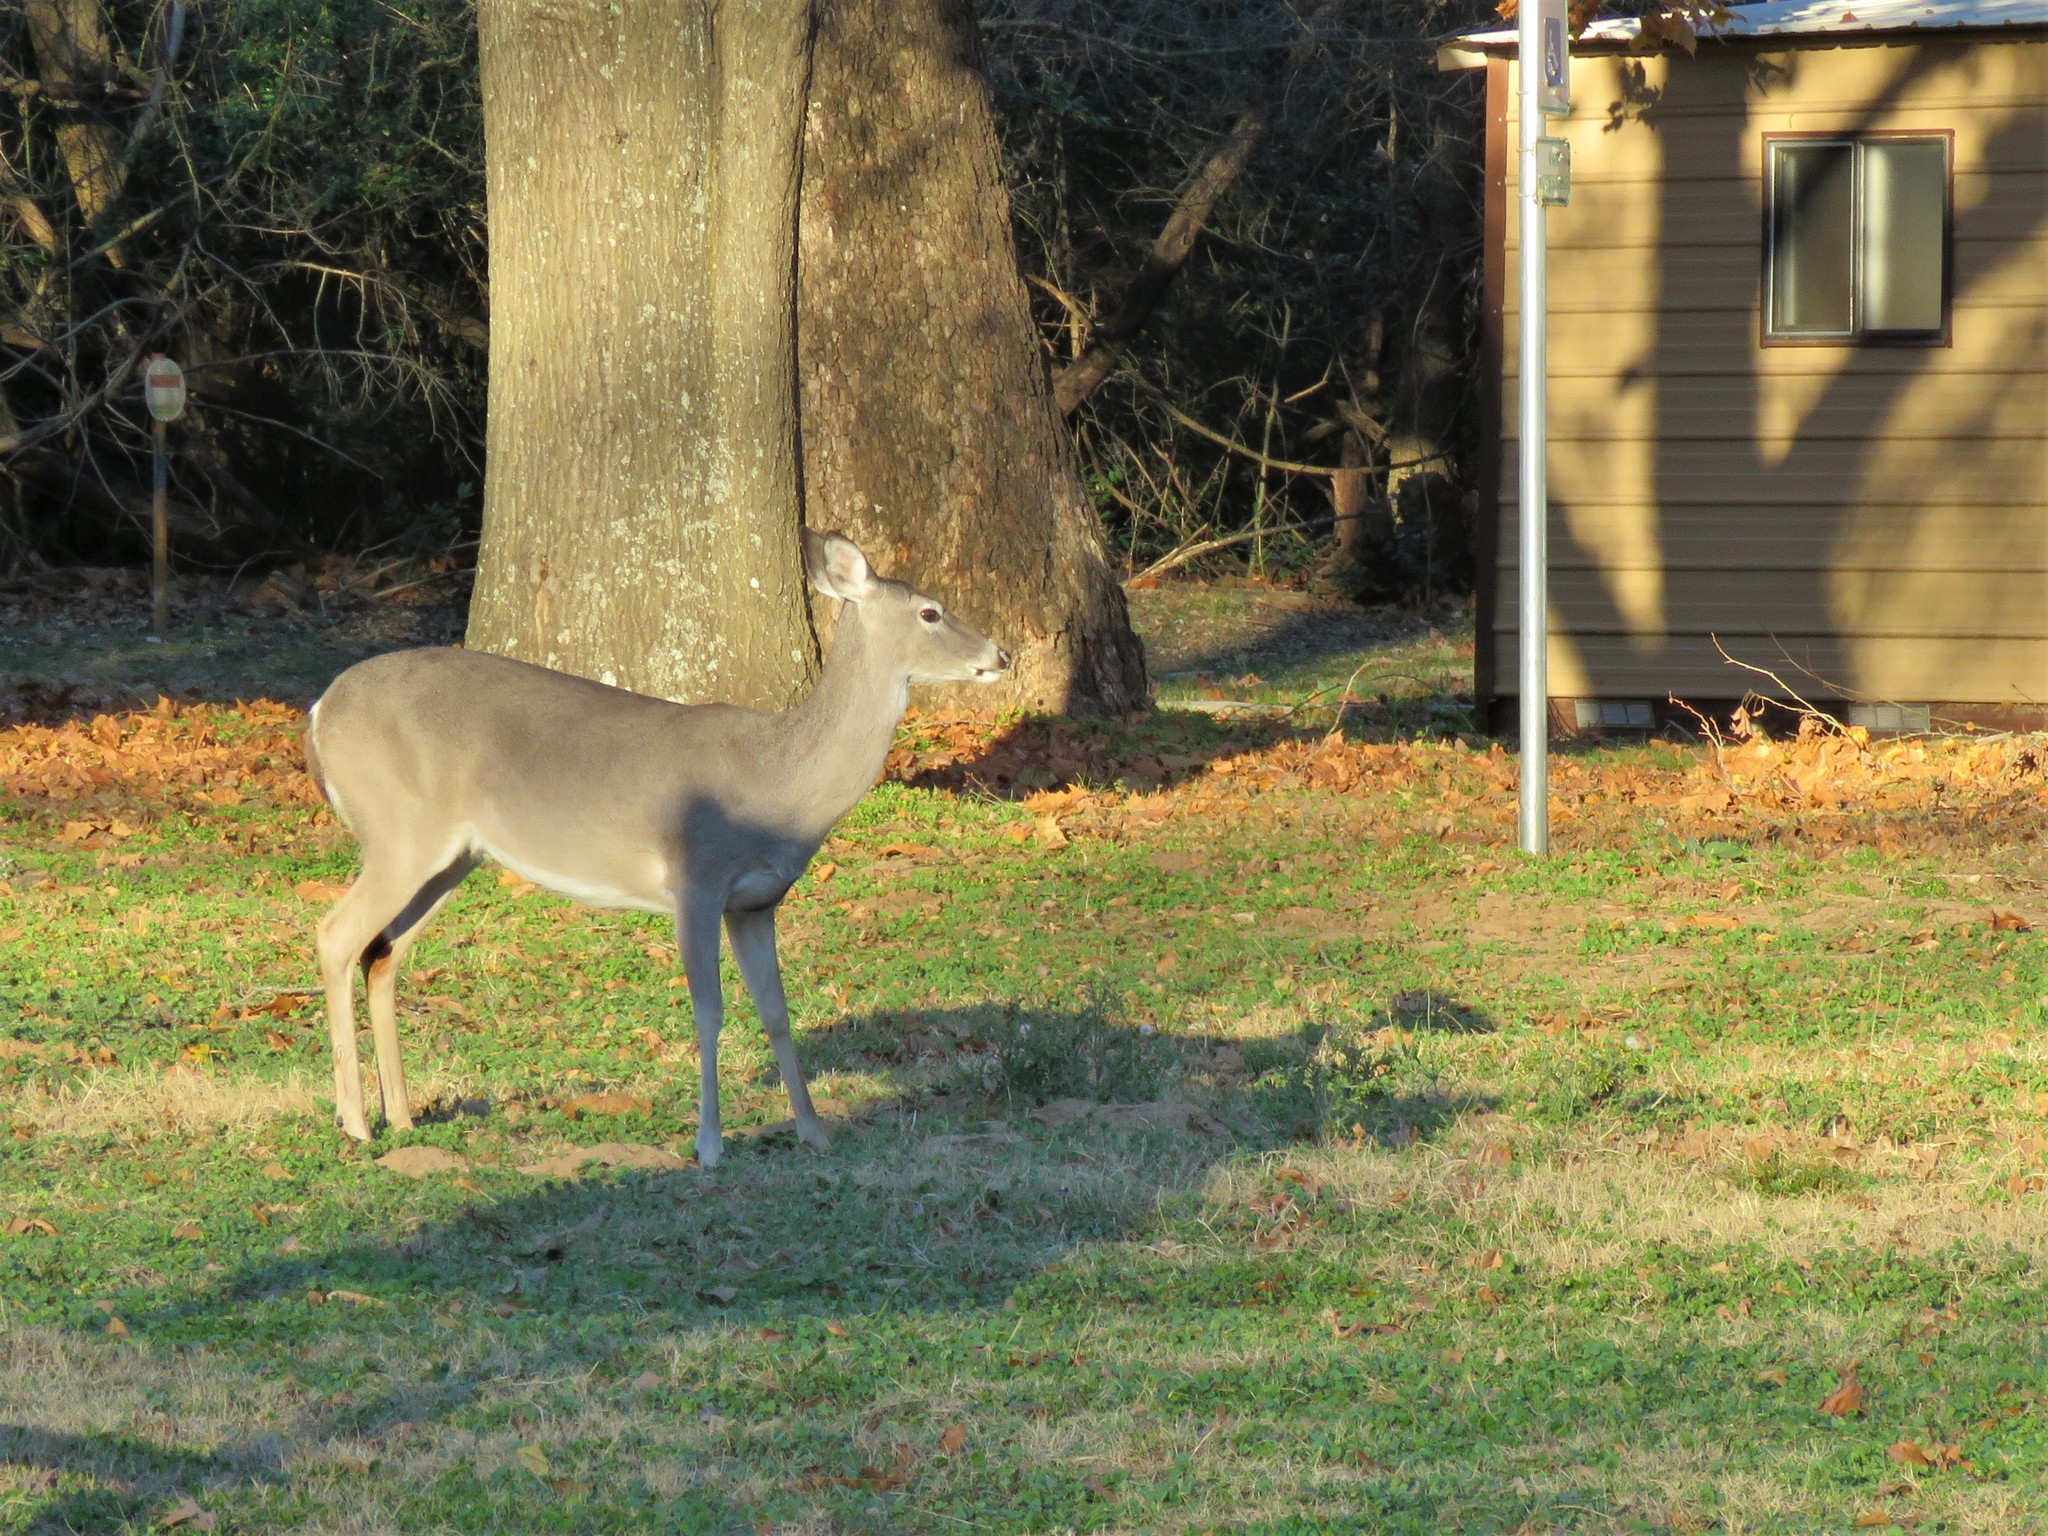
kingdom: Animalia
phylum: Chordata
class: Mammalia
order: Artiodactyla
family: Cervidae
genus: Odocoileus
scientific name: Odocoileus virginianus
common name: White-tailed deer
